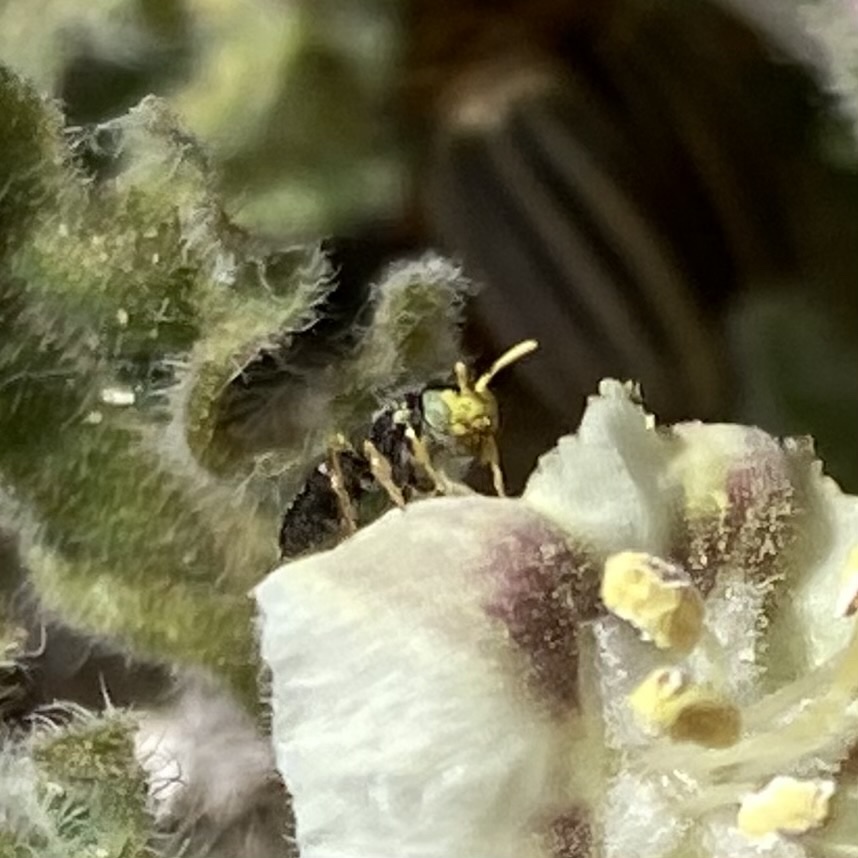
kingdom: Animalia
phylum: Arthropoda
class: Insecta
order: Hymenoptera
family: Andrenidae
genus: Perdita
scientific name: Perdita
